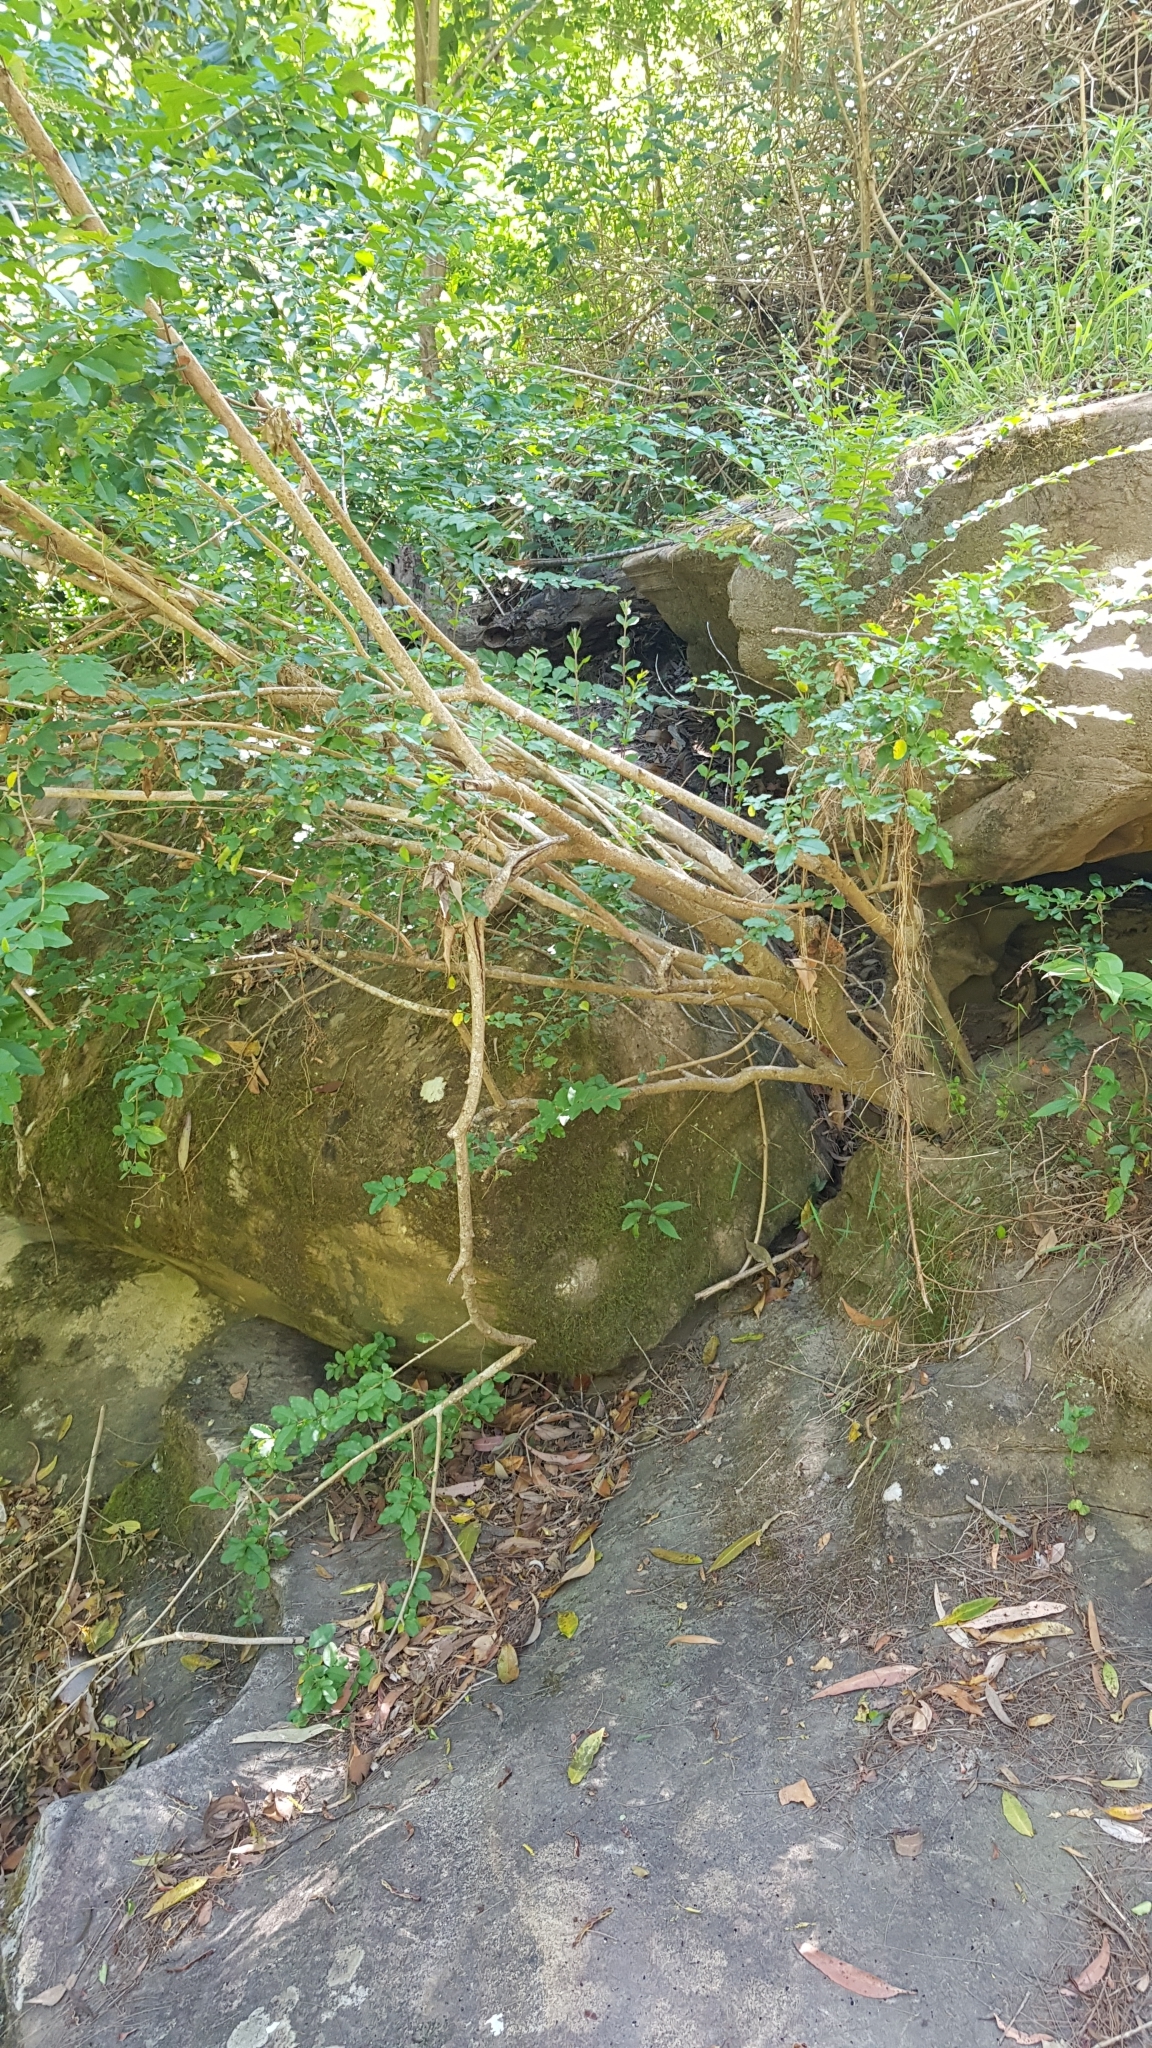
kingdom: Animalia
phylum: Chordata
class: Squamata
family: Agamidae
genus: Intellagama
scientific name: Intellagama lesueurii
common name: Eastern water dragon
